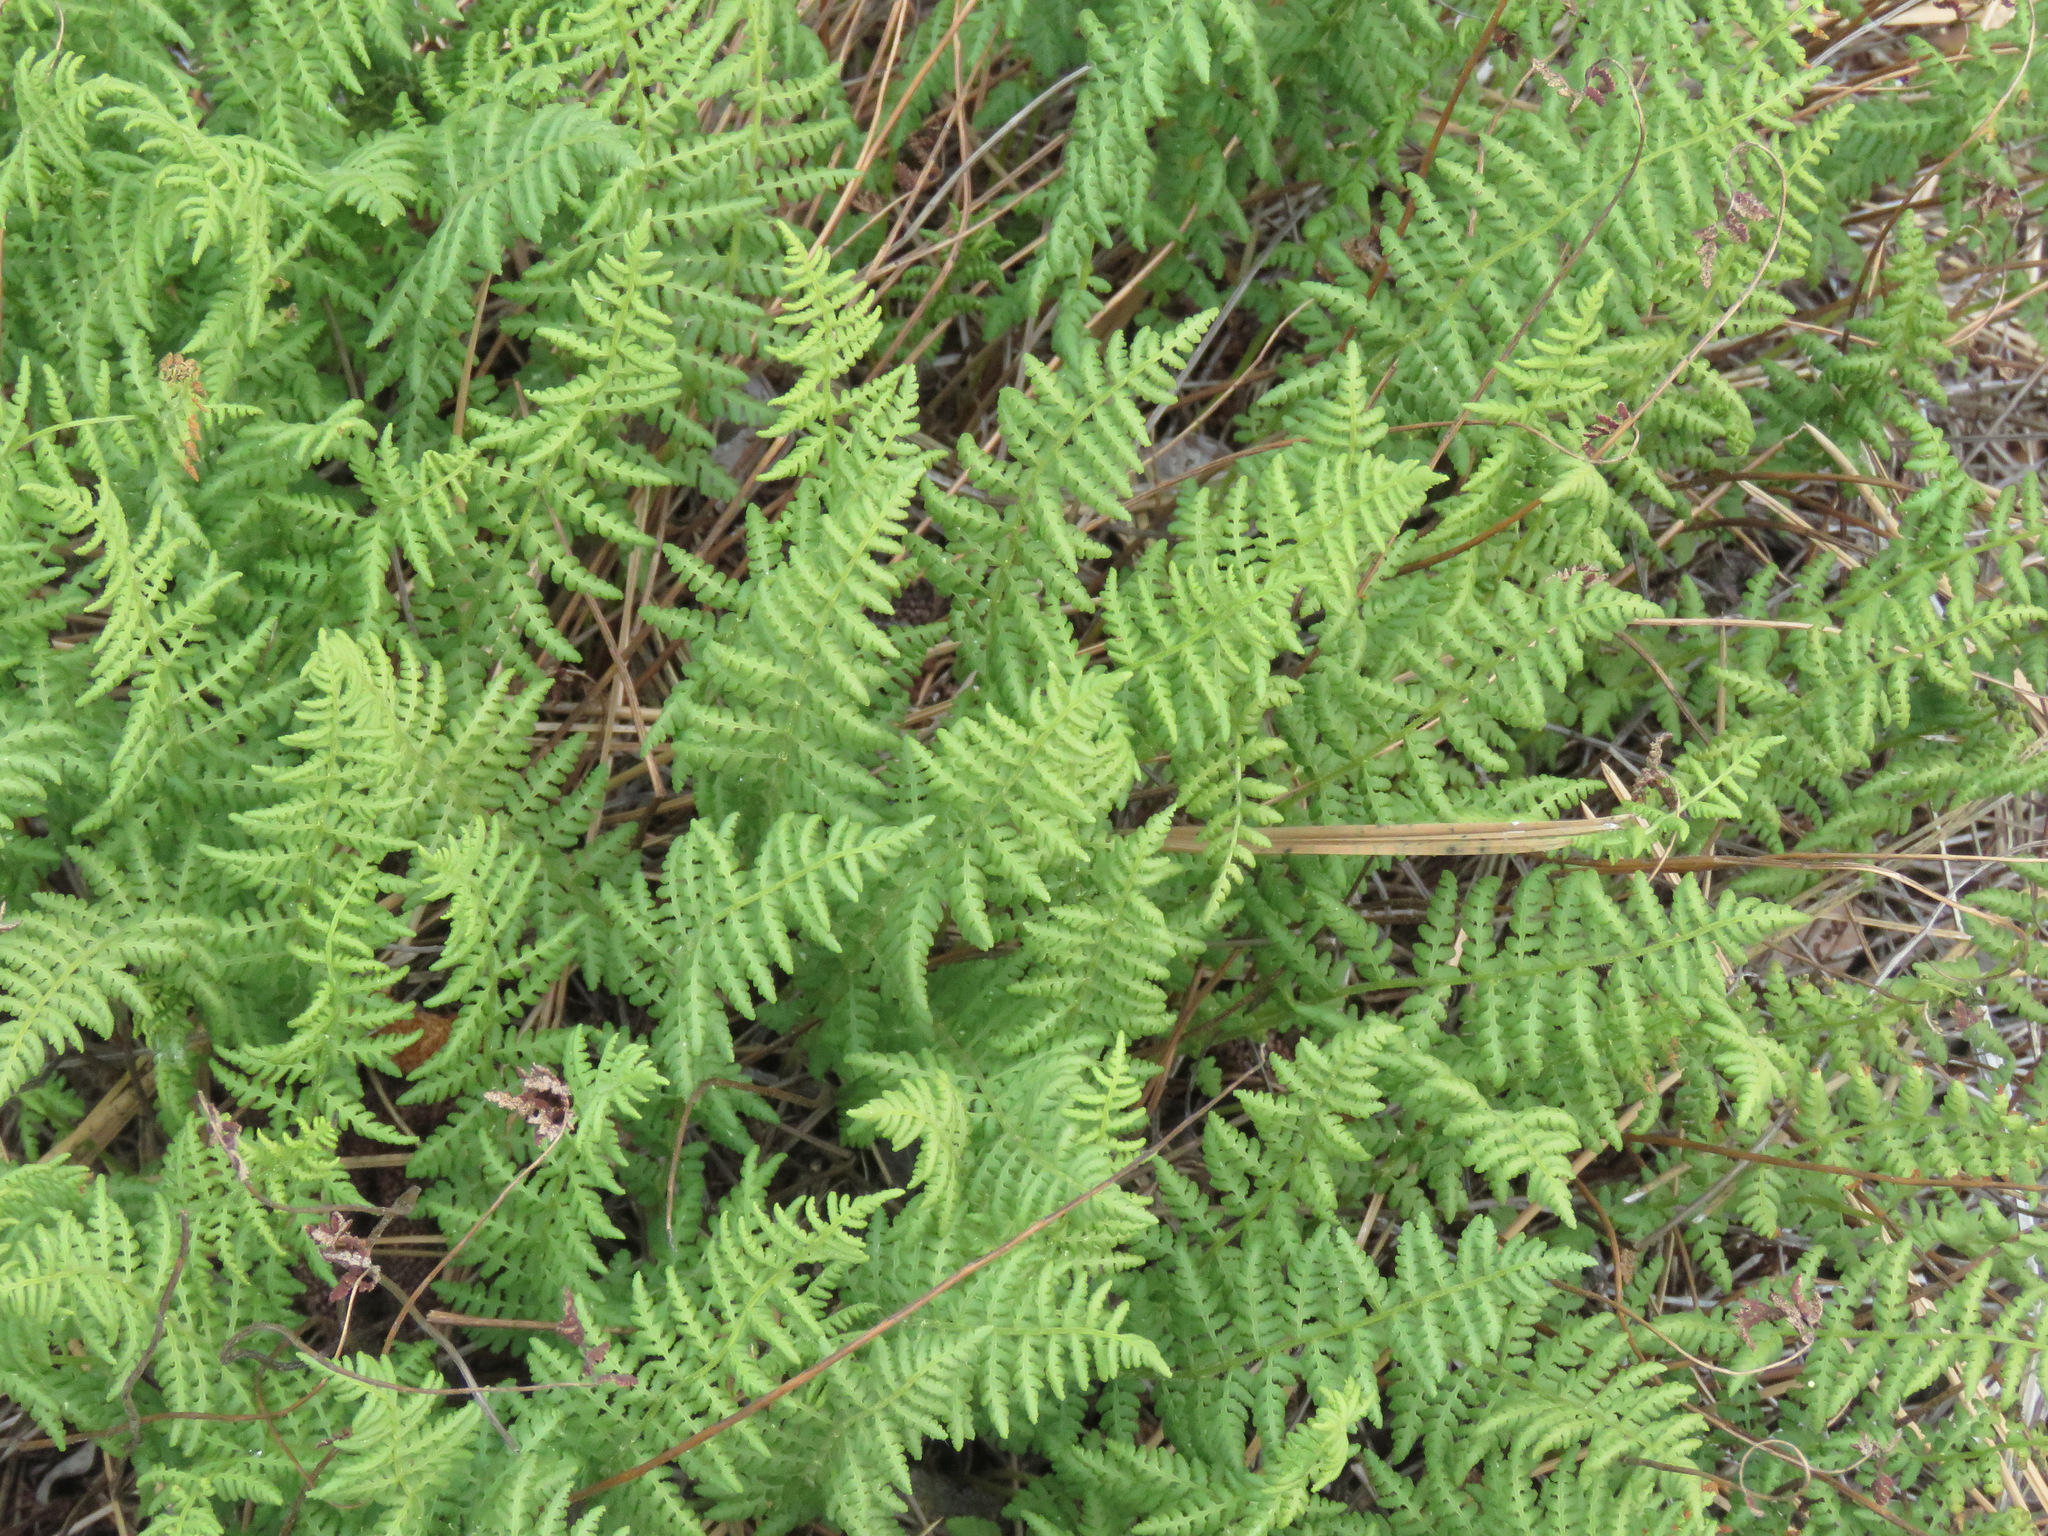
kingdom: Plantae
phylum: Tracheophyta
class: Polypodiopsida
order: Polypodiales
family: Woodsiaceae
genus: Physematium
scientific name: Physematium scopulinum
